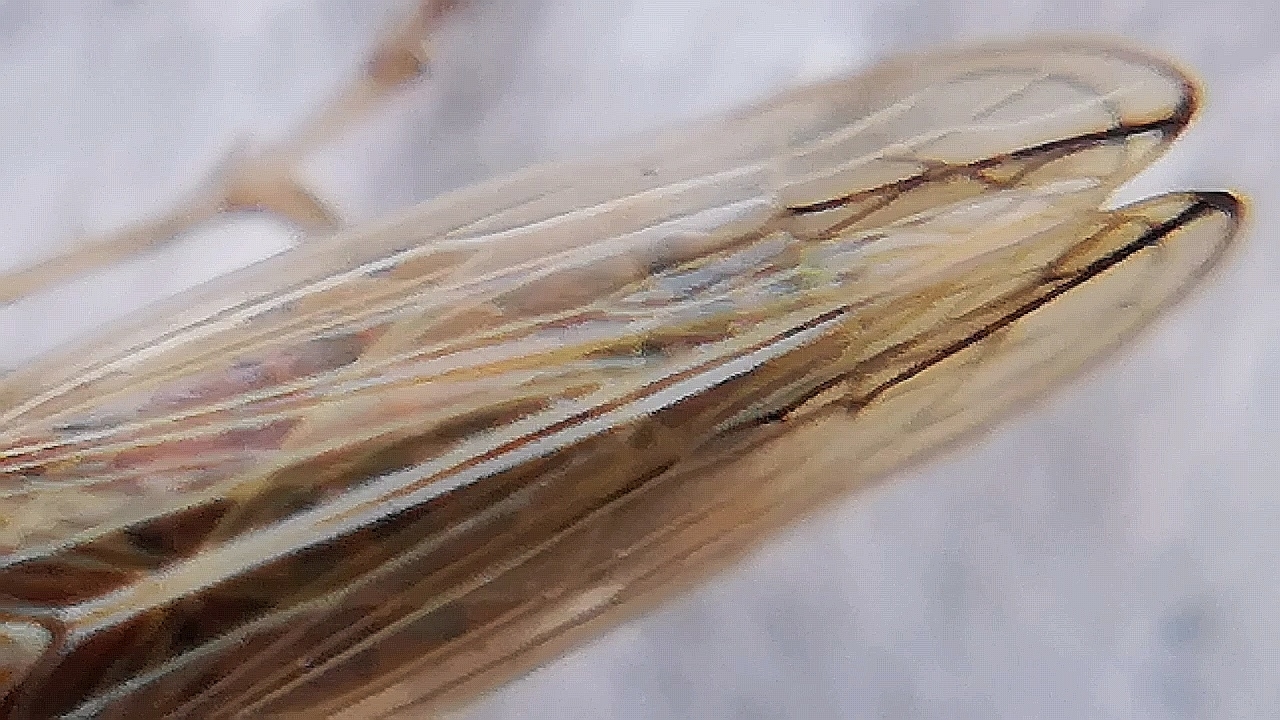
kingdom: Animalia
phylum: Arthropoda
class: Insecta
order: Hemiptera
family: Delphacidae
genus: Stenocranus
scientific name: Stenocranus major
